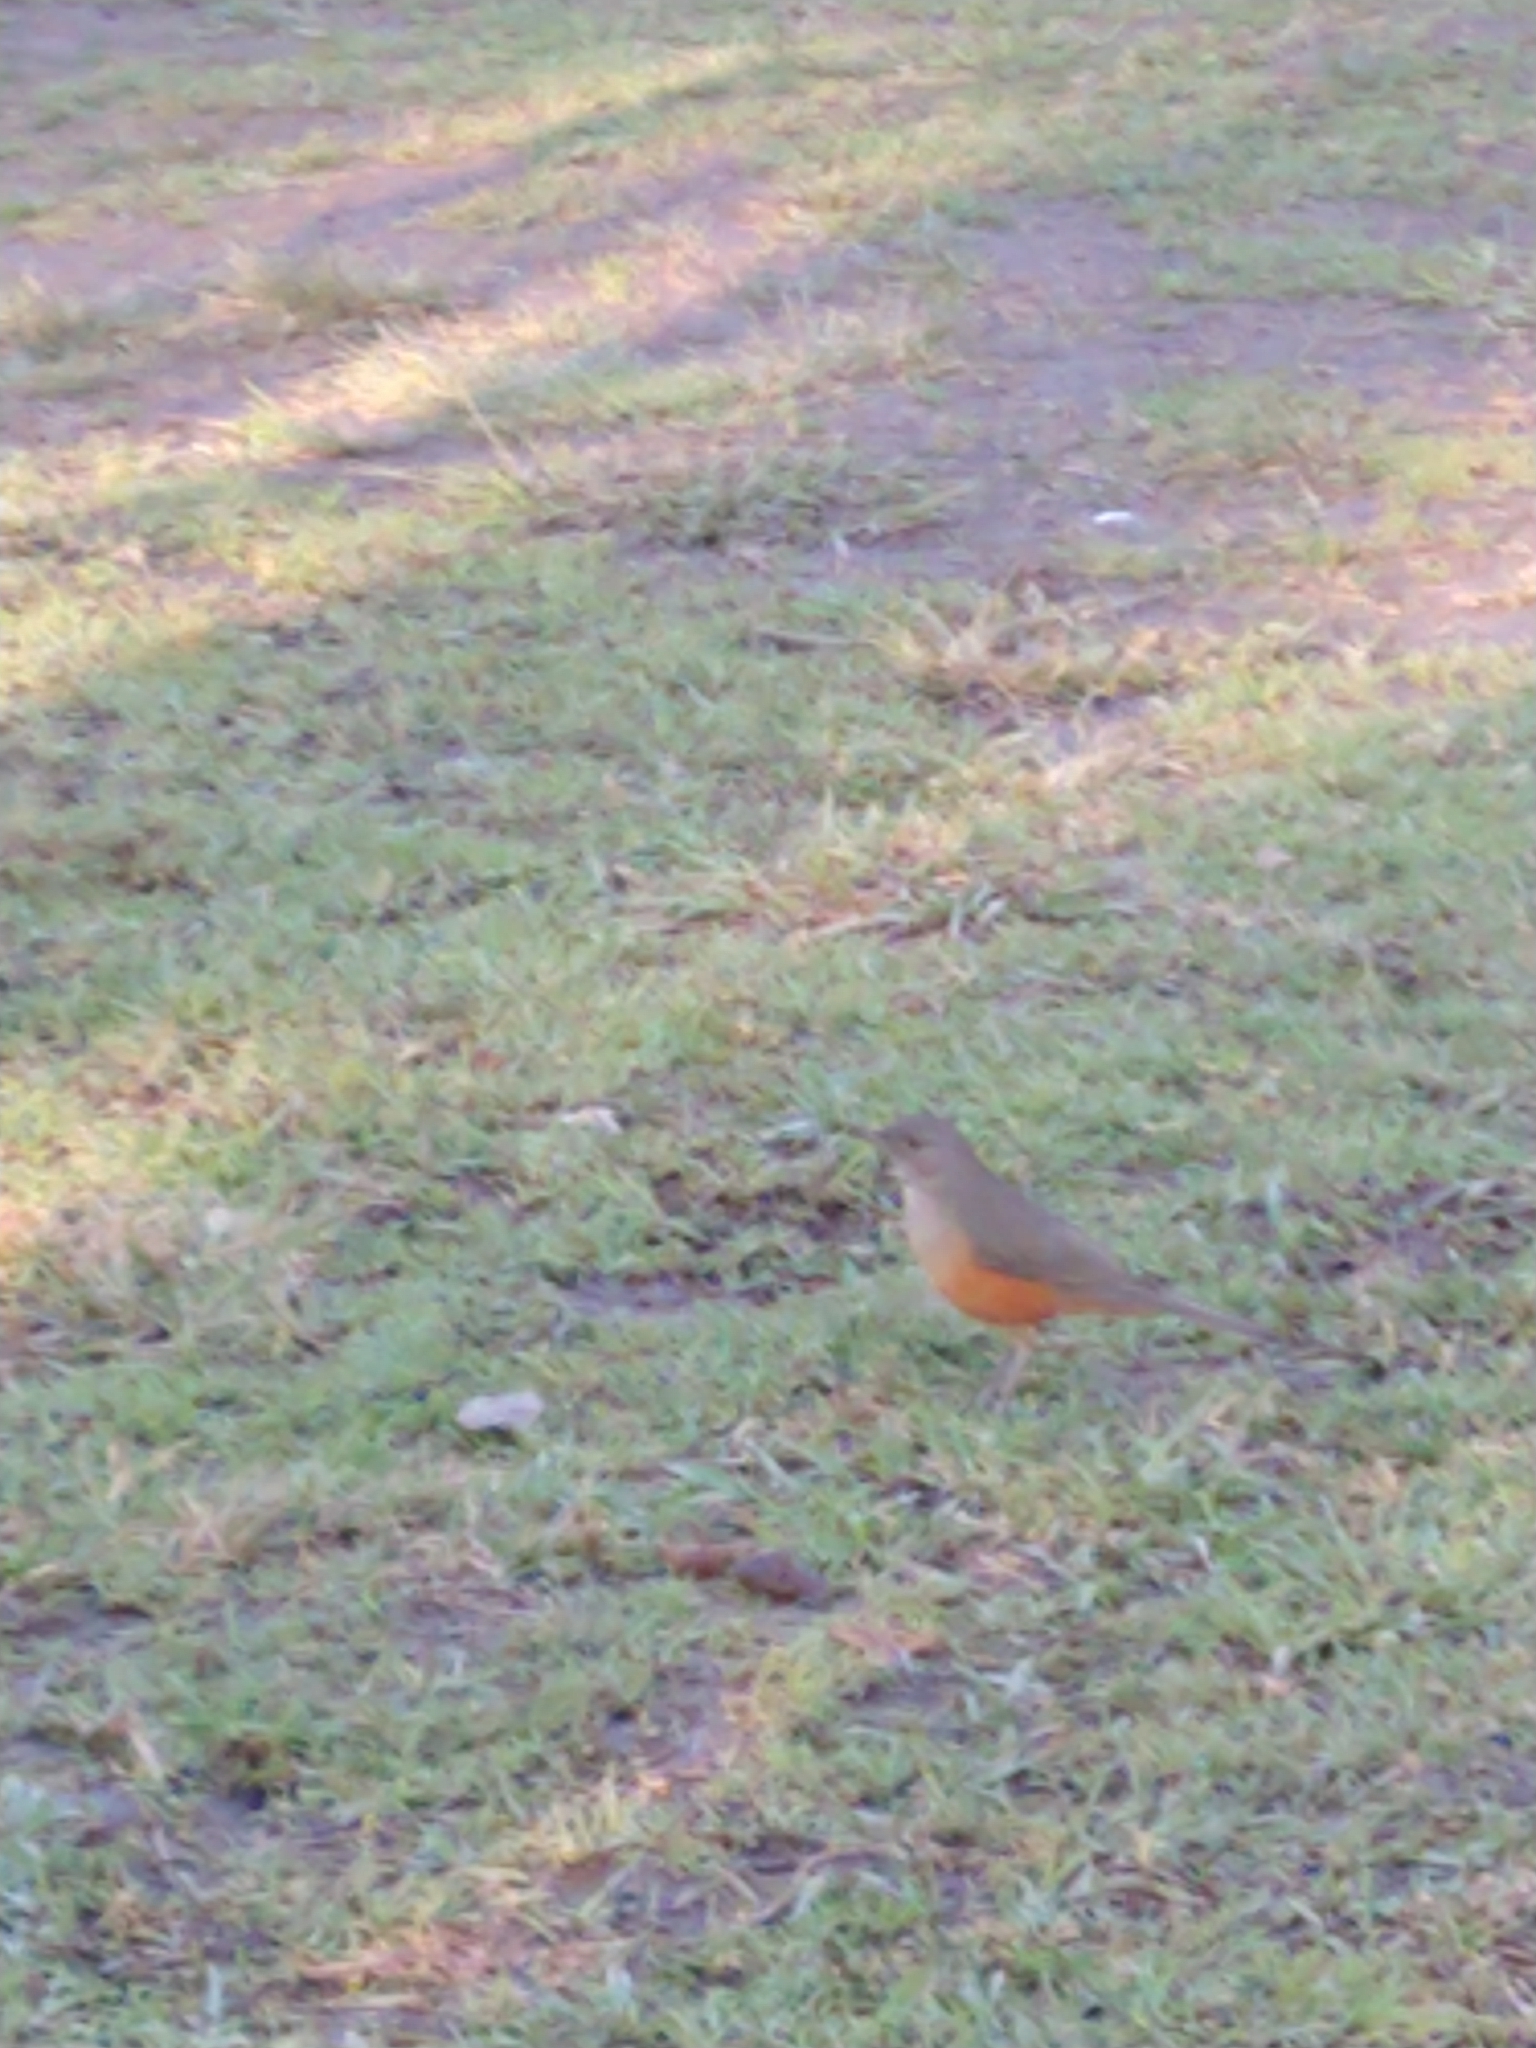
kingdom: Animalia
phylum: Chordata
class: Aves
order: Passeriformes
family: Turdidae
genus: Turdus
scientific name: Turdus rufiventris
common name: Rufous-bellied thrush
